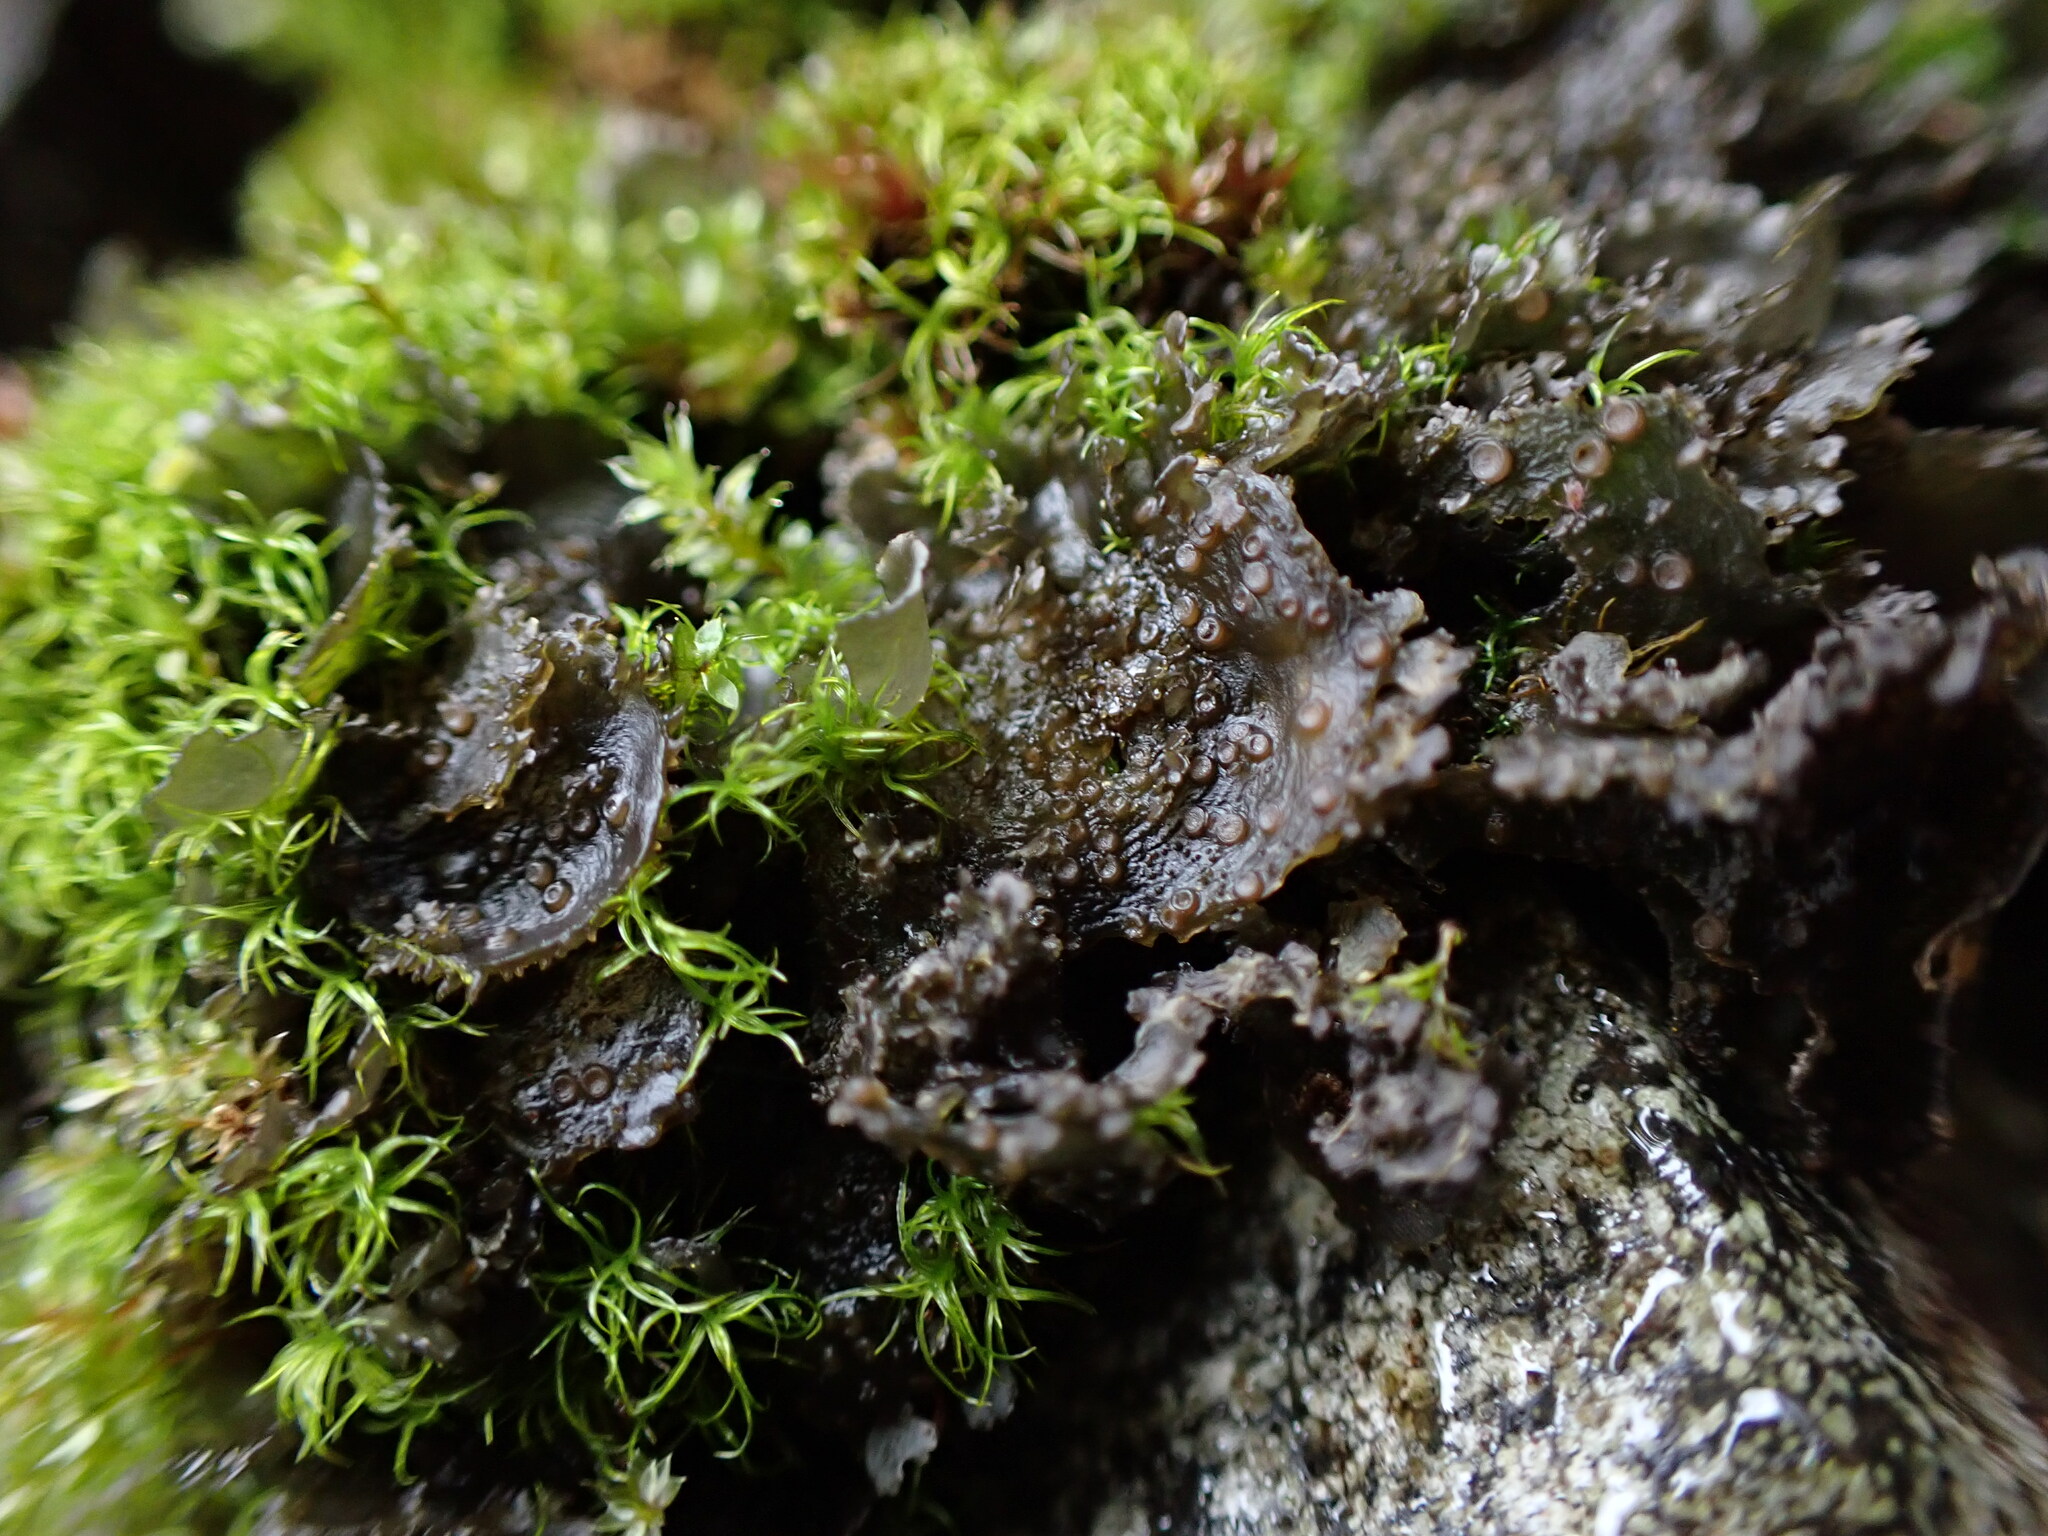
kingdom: Fungi
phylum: Ascomycota
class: Lecanoromycetes
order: Peltigerales
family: Collemataceae
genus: Scytinium
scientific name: Scytinium platynum
